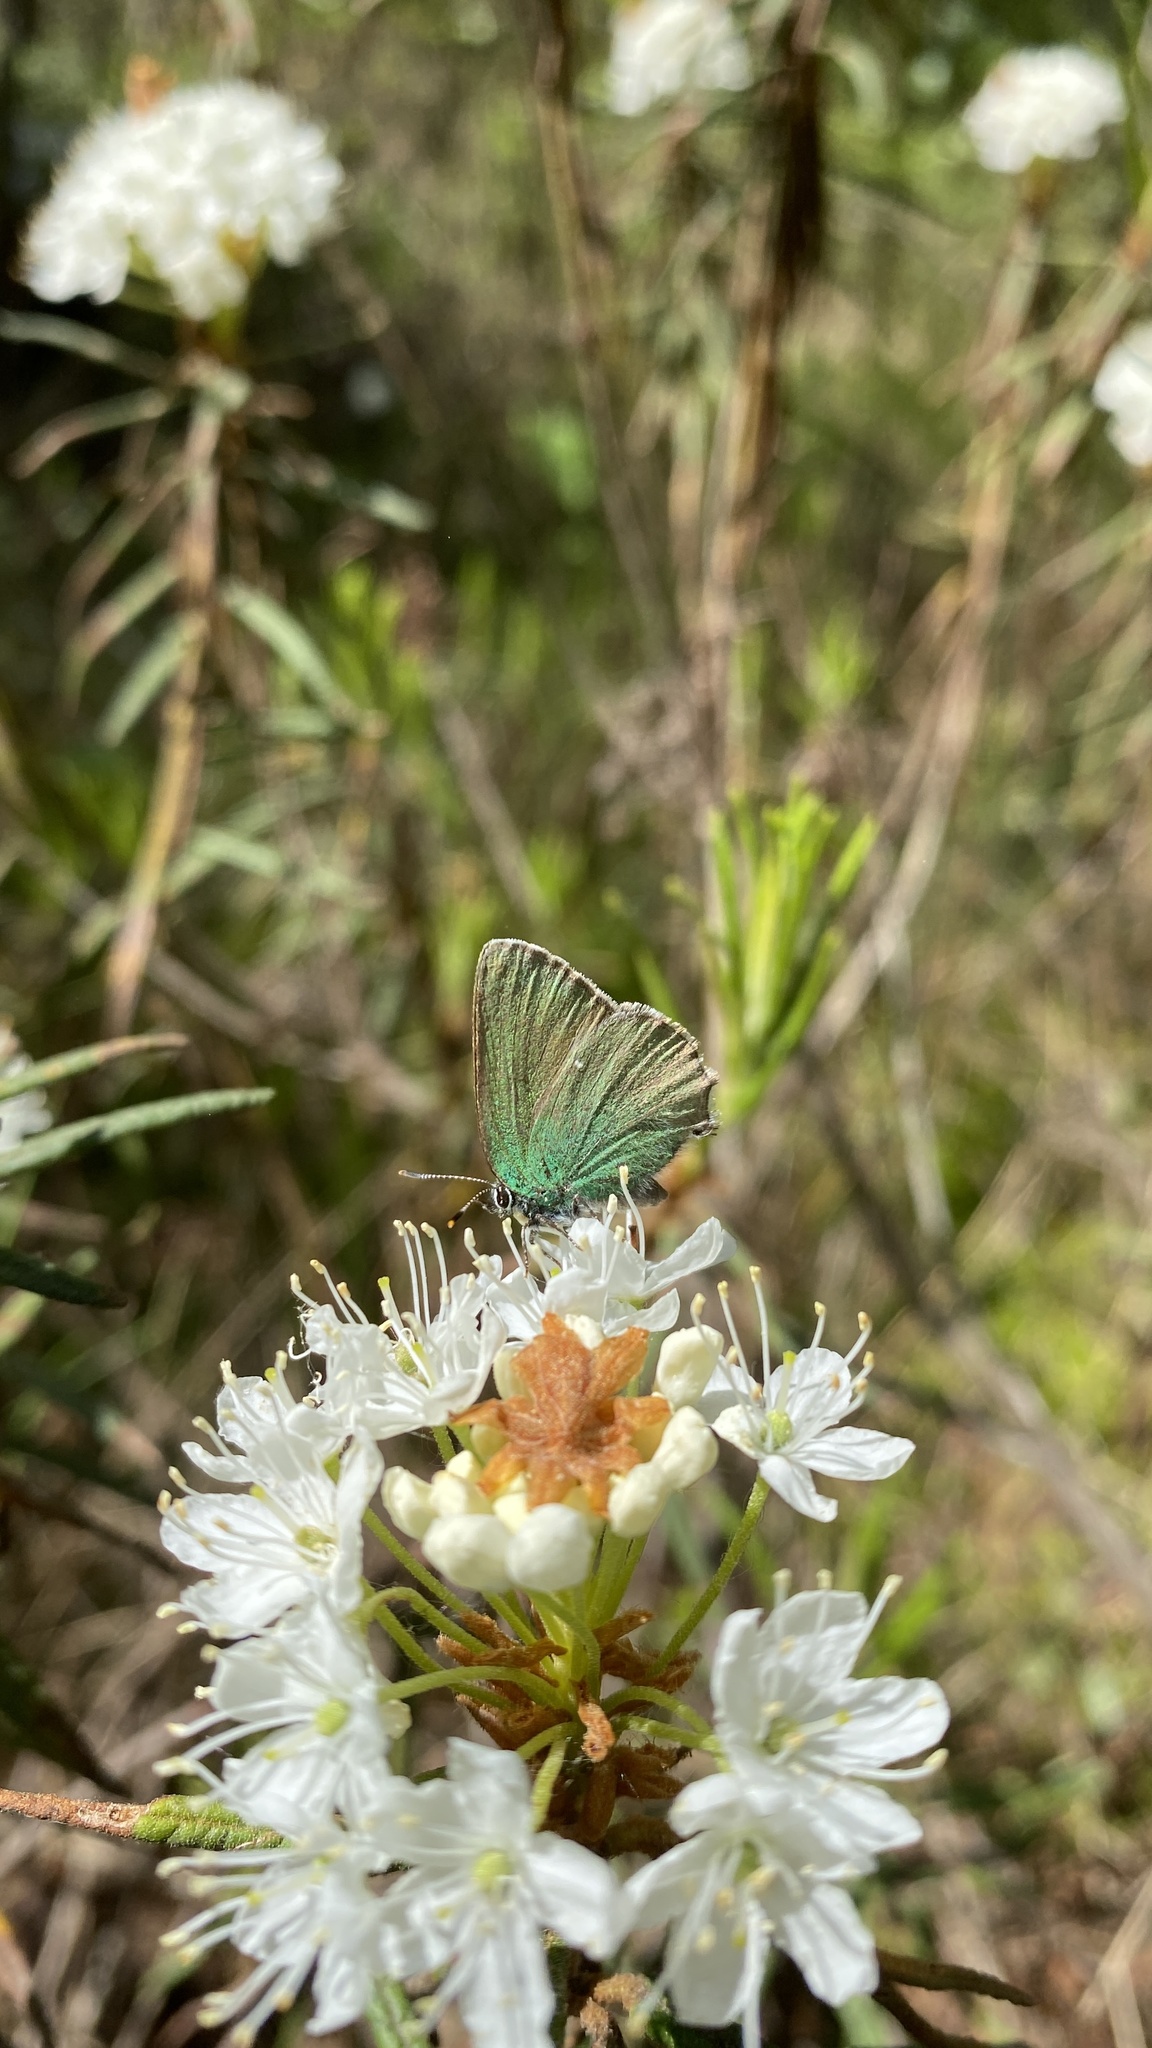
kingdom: Animalia
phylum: Arthropoda
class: Insecta
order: Lepidoptera
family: Lycaenidae
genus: Callophrys
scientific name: Callophrys rubi
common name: Green hairstreak
